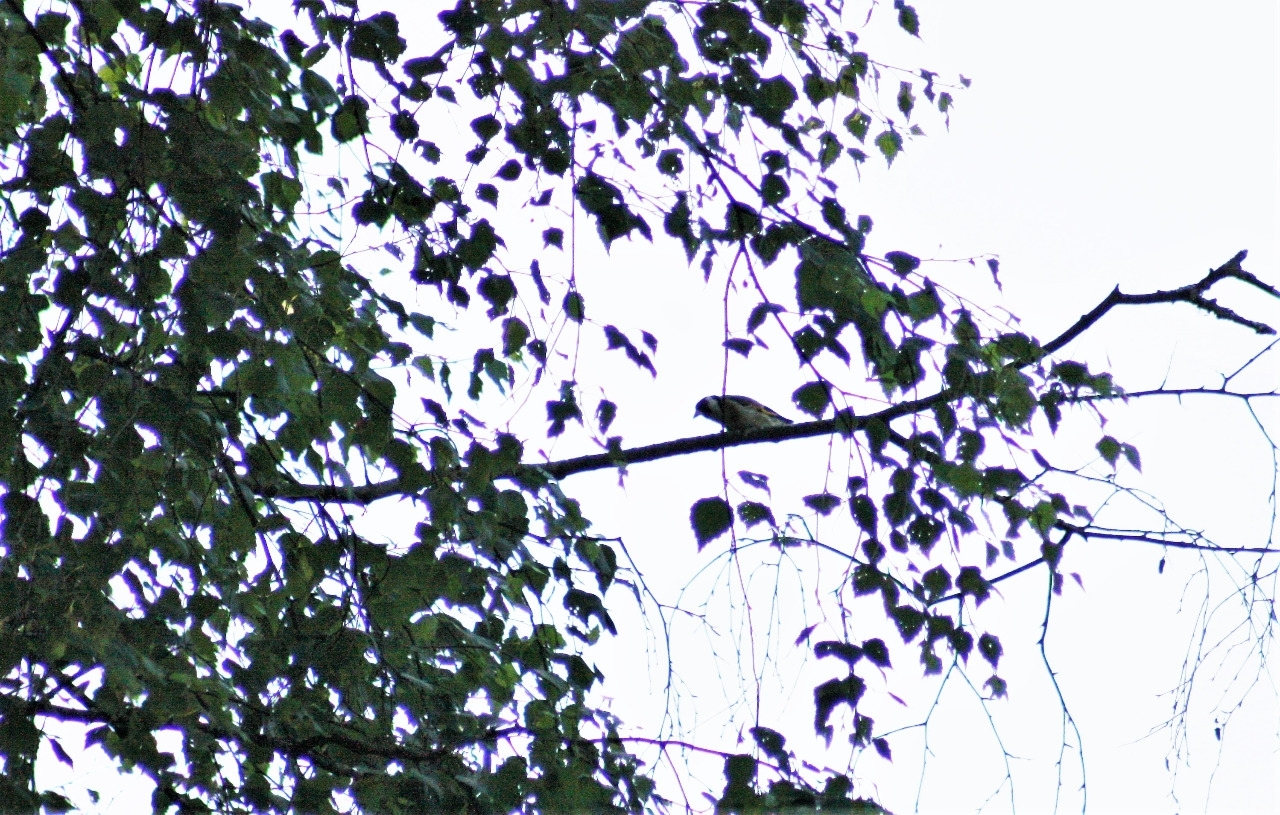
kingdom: Animalia
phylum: Chordata
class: Aves
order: Passeriformes
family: Fringillidae
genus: Carduelis
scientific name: Carduelis carduelis
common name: European goldfinch
